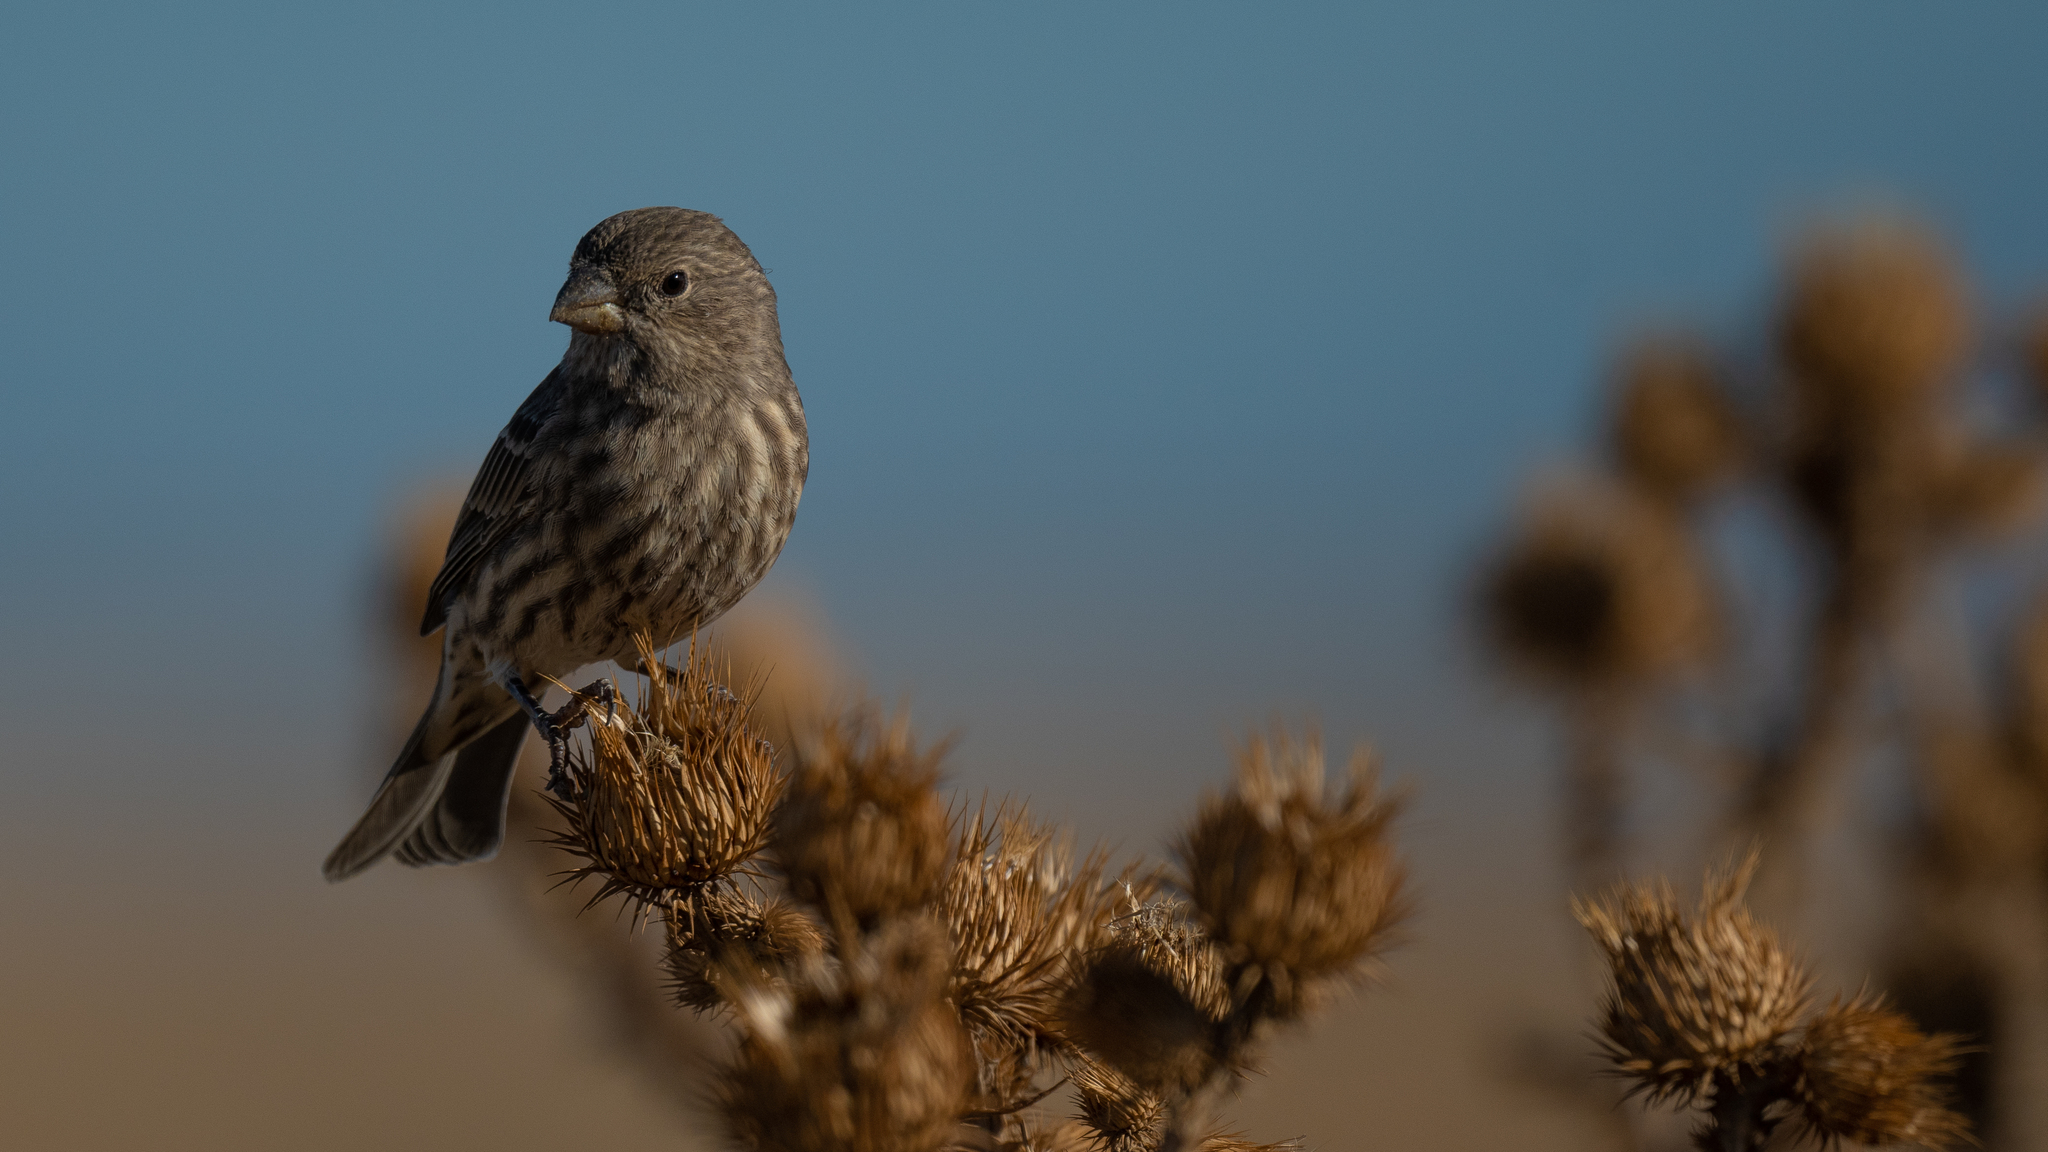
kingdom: Animalia
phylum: Chordata
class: Aves
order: Passeriformes
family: Fringillidae
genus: Haemorhous
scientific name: Haemorhous mexicanus
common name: House finch
